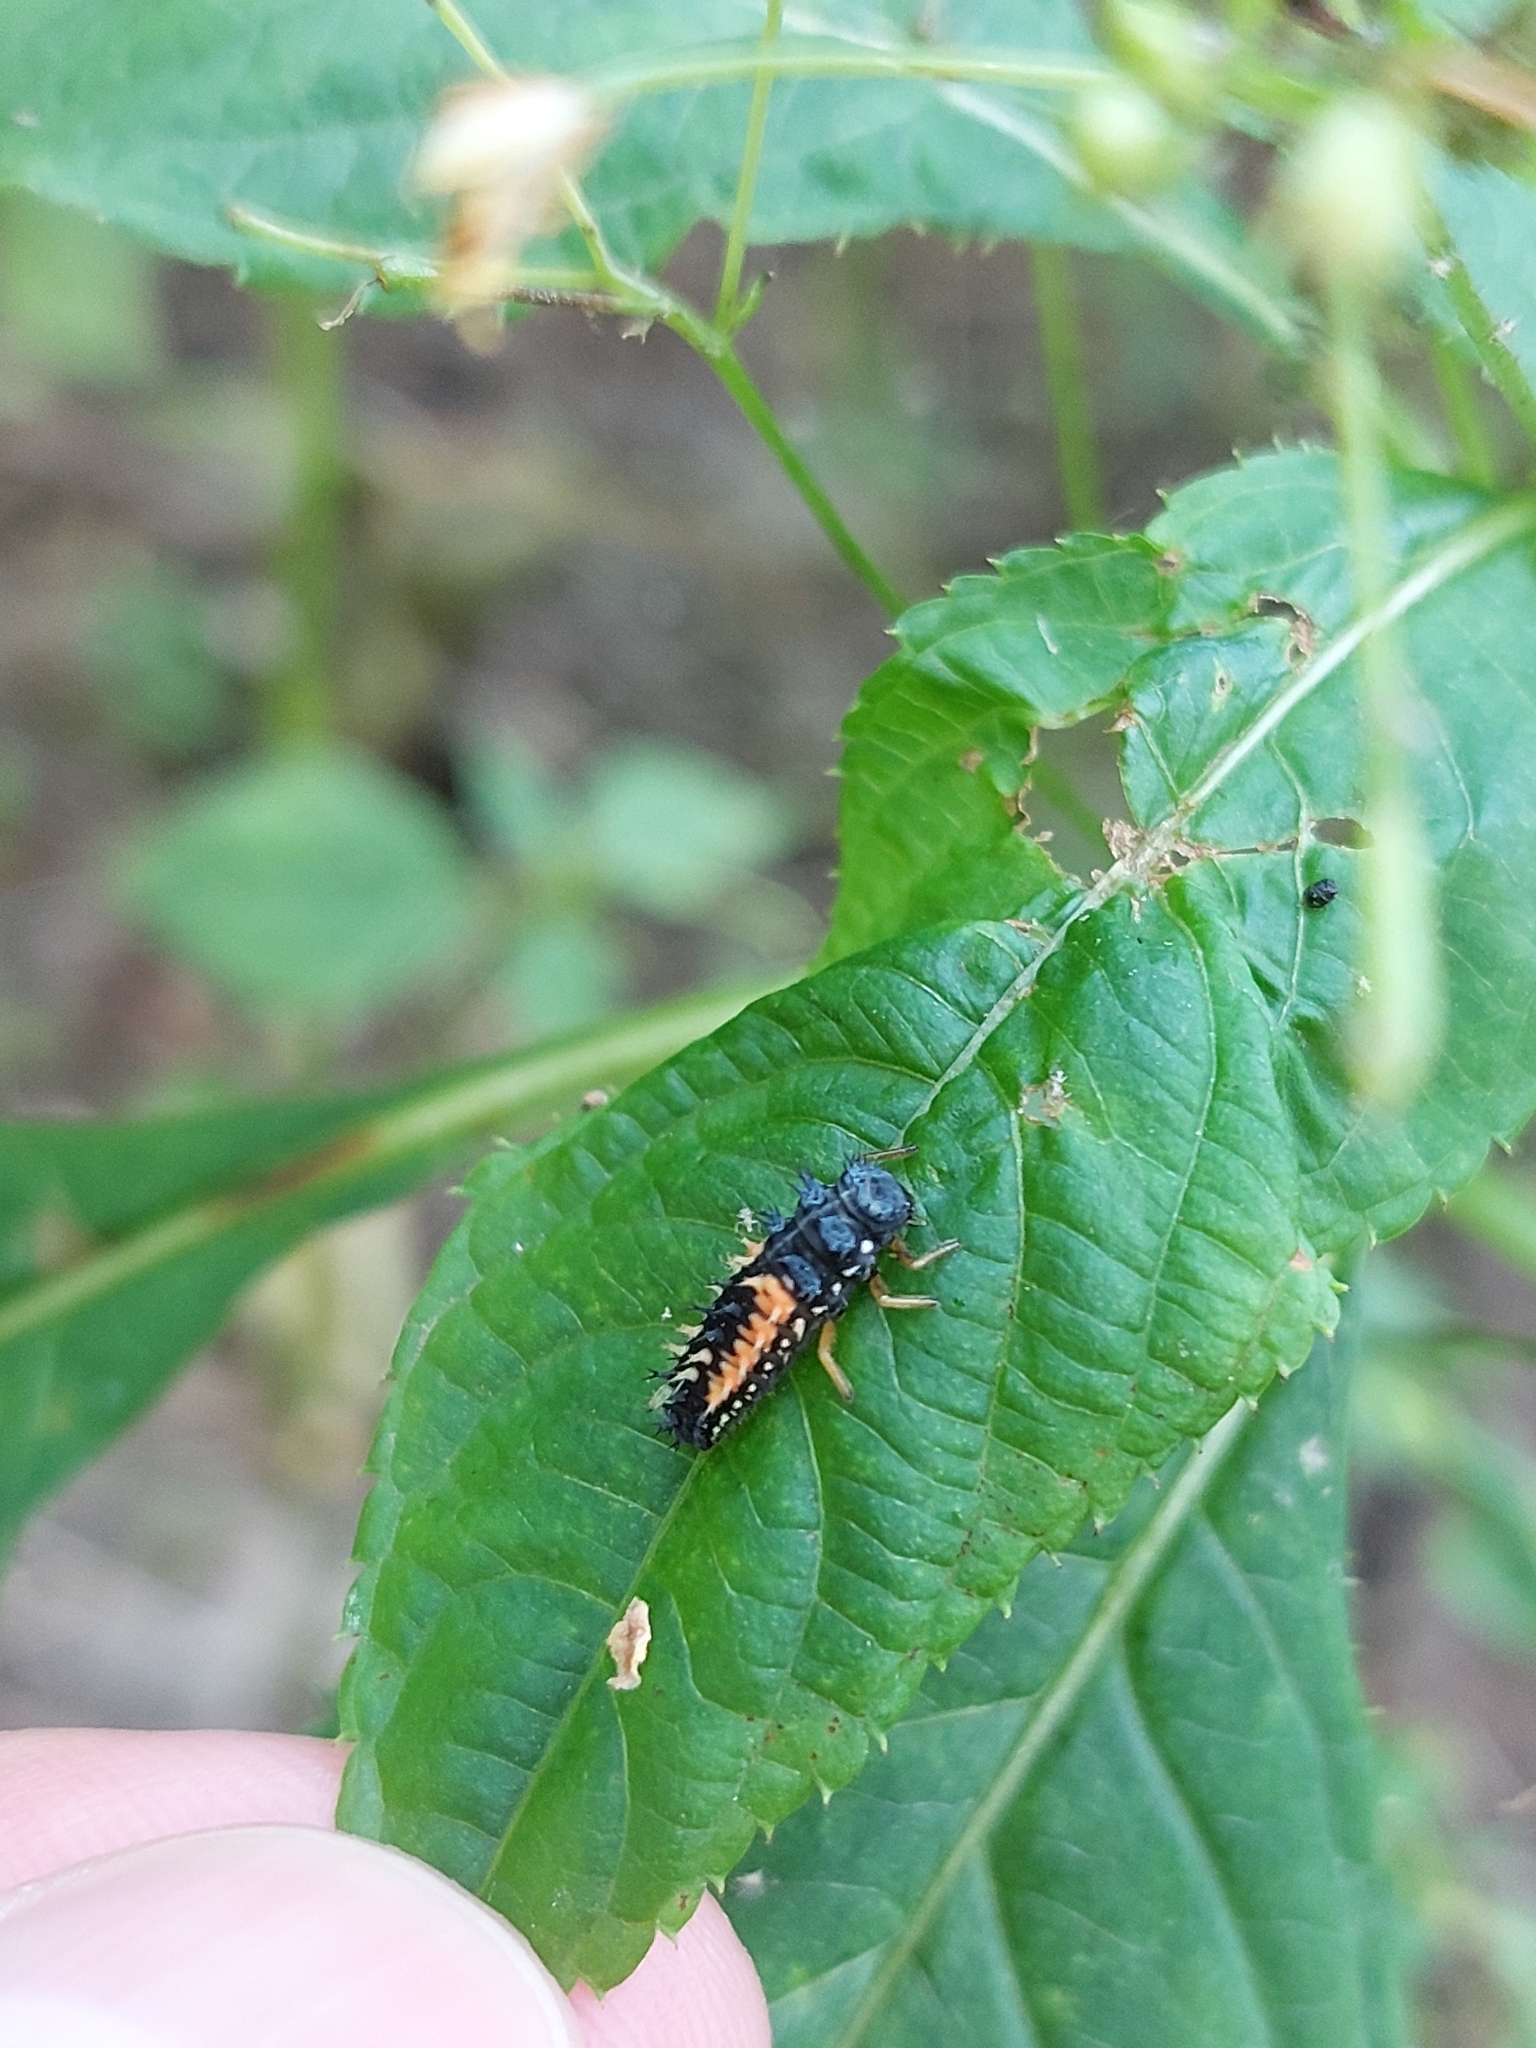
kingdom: Animalia
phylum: Arthropoda
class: Insecta
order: Coleoptera
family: Coccinellidae
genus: Harmonia
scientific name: Harmonia axyridis
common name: Harlequin ladybird
